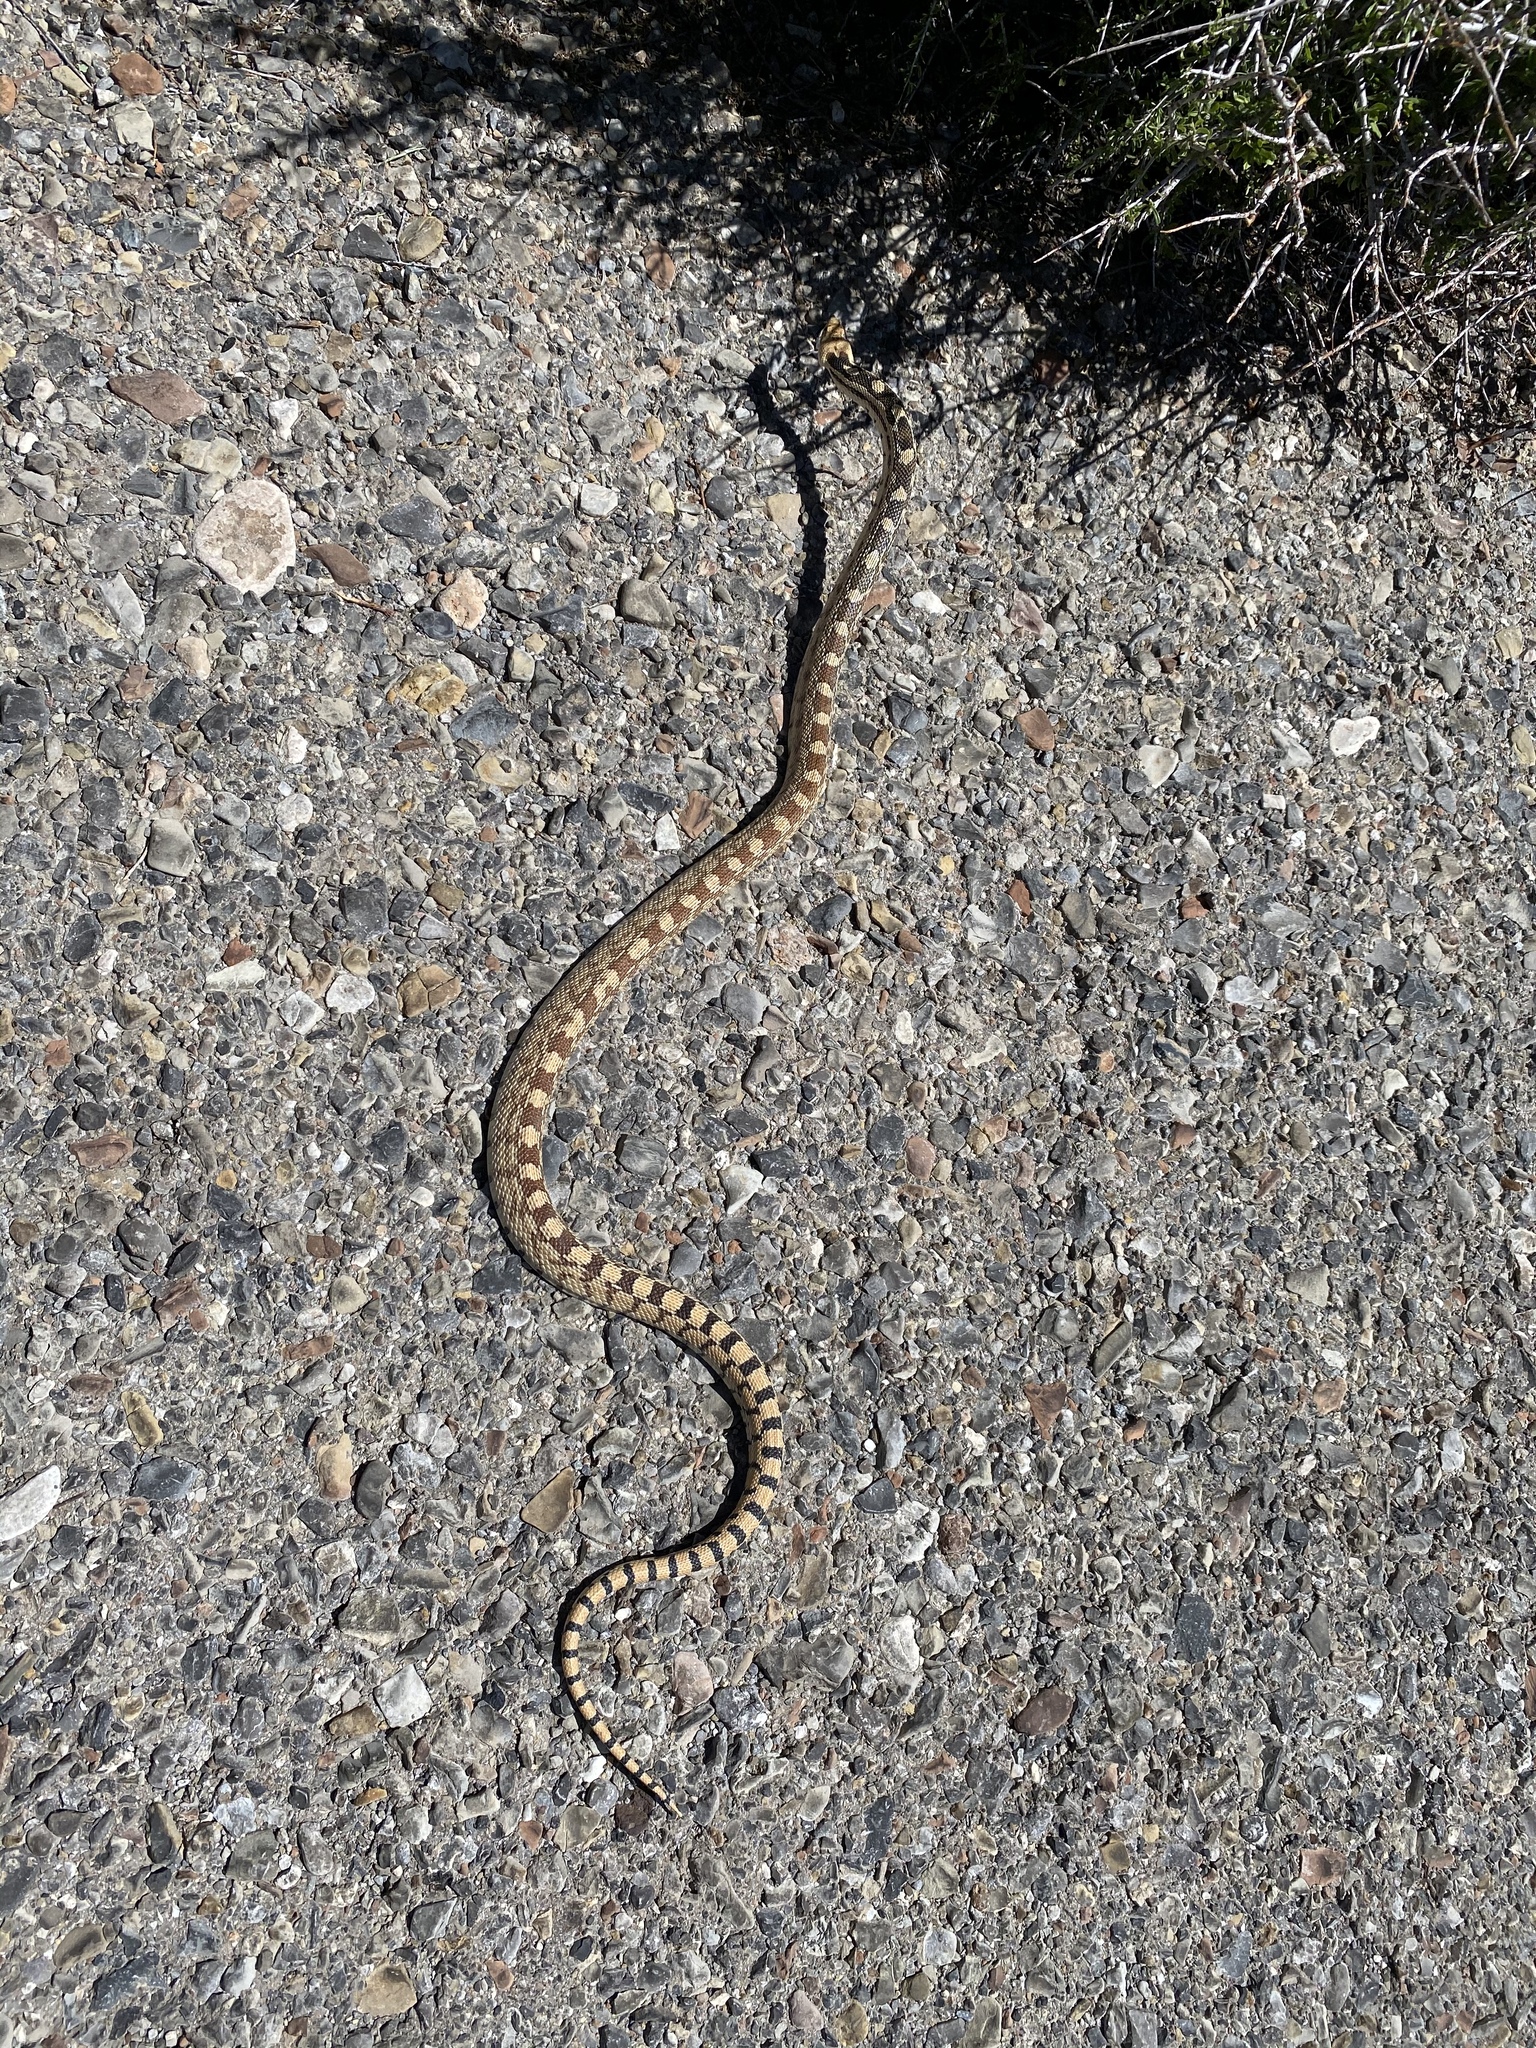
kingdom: Animalia
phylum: Chordata
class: Squamata
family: Colubridae
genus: Pituophis
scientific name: Pituophis catenifer
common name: Gopher snake
